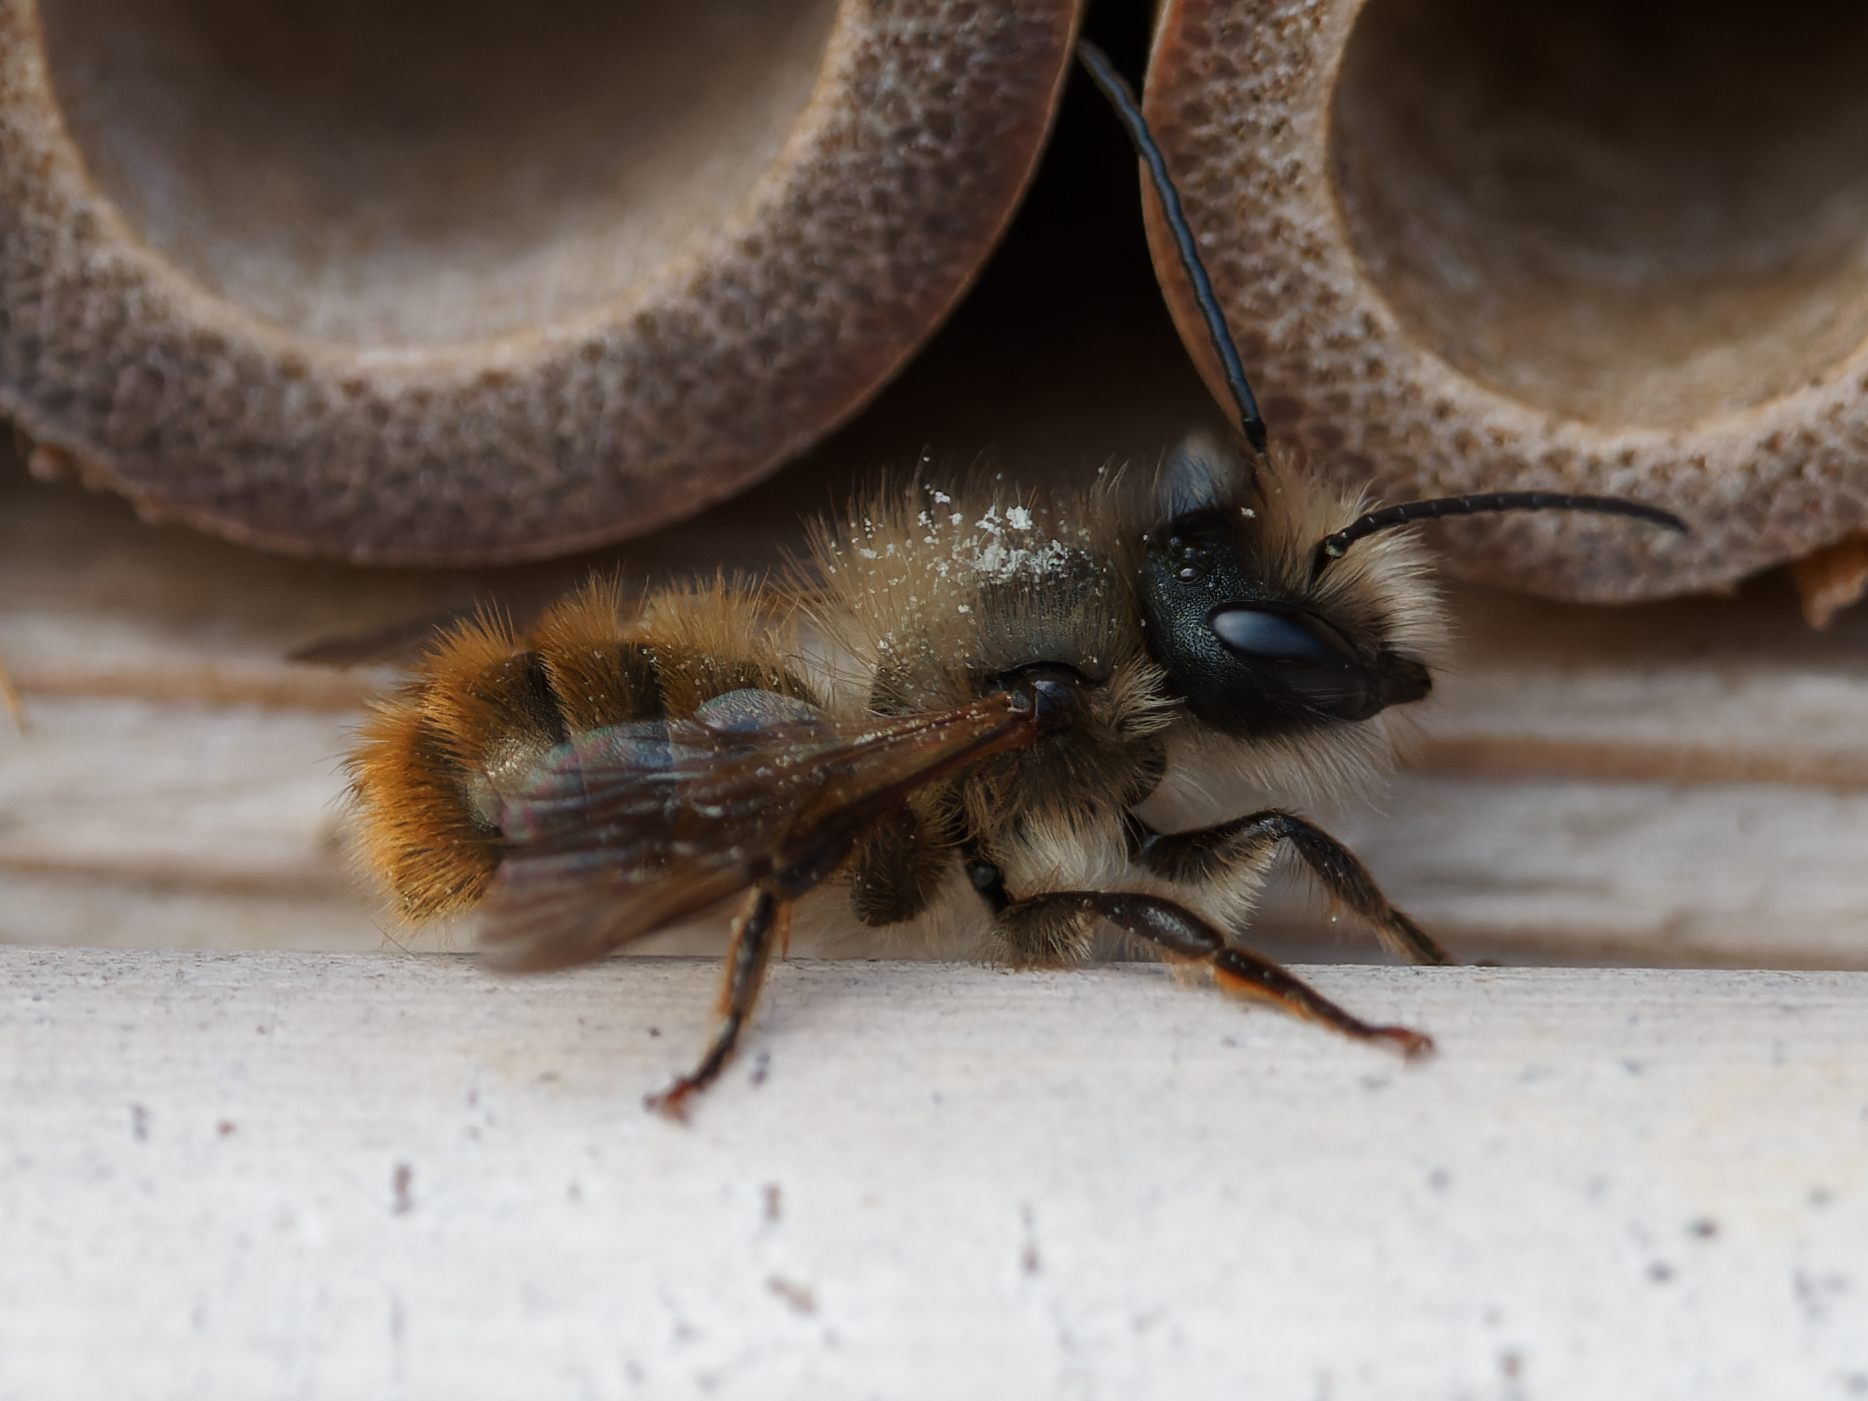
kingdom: Animalia
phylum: Arthropoda
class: Insecta
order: Hymenoptera
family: Megachilidae
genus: Osmia
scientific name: Osmia bicornis
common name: Red mason bee
